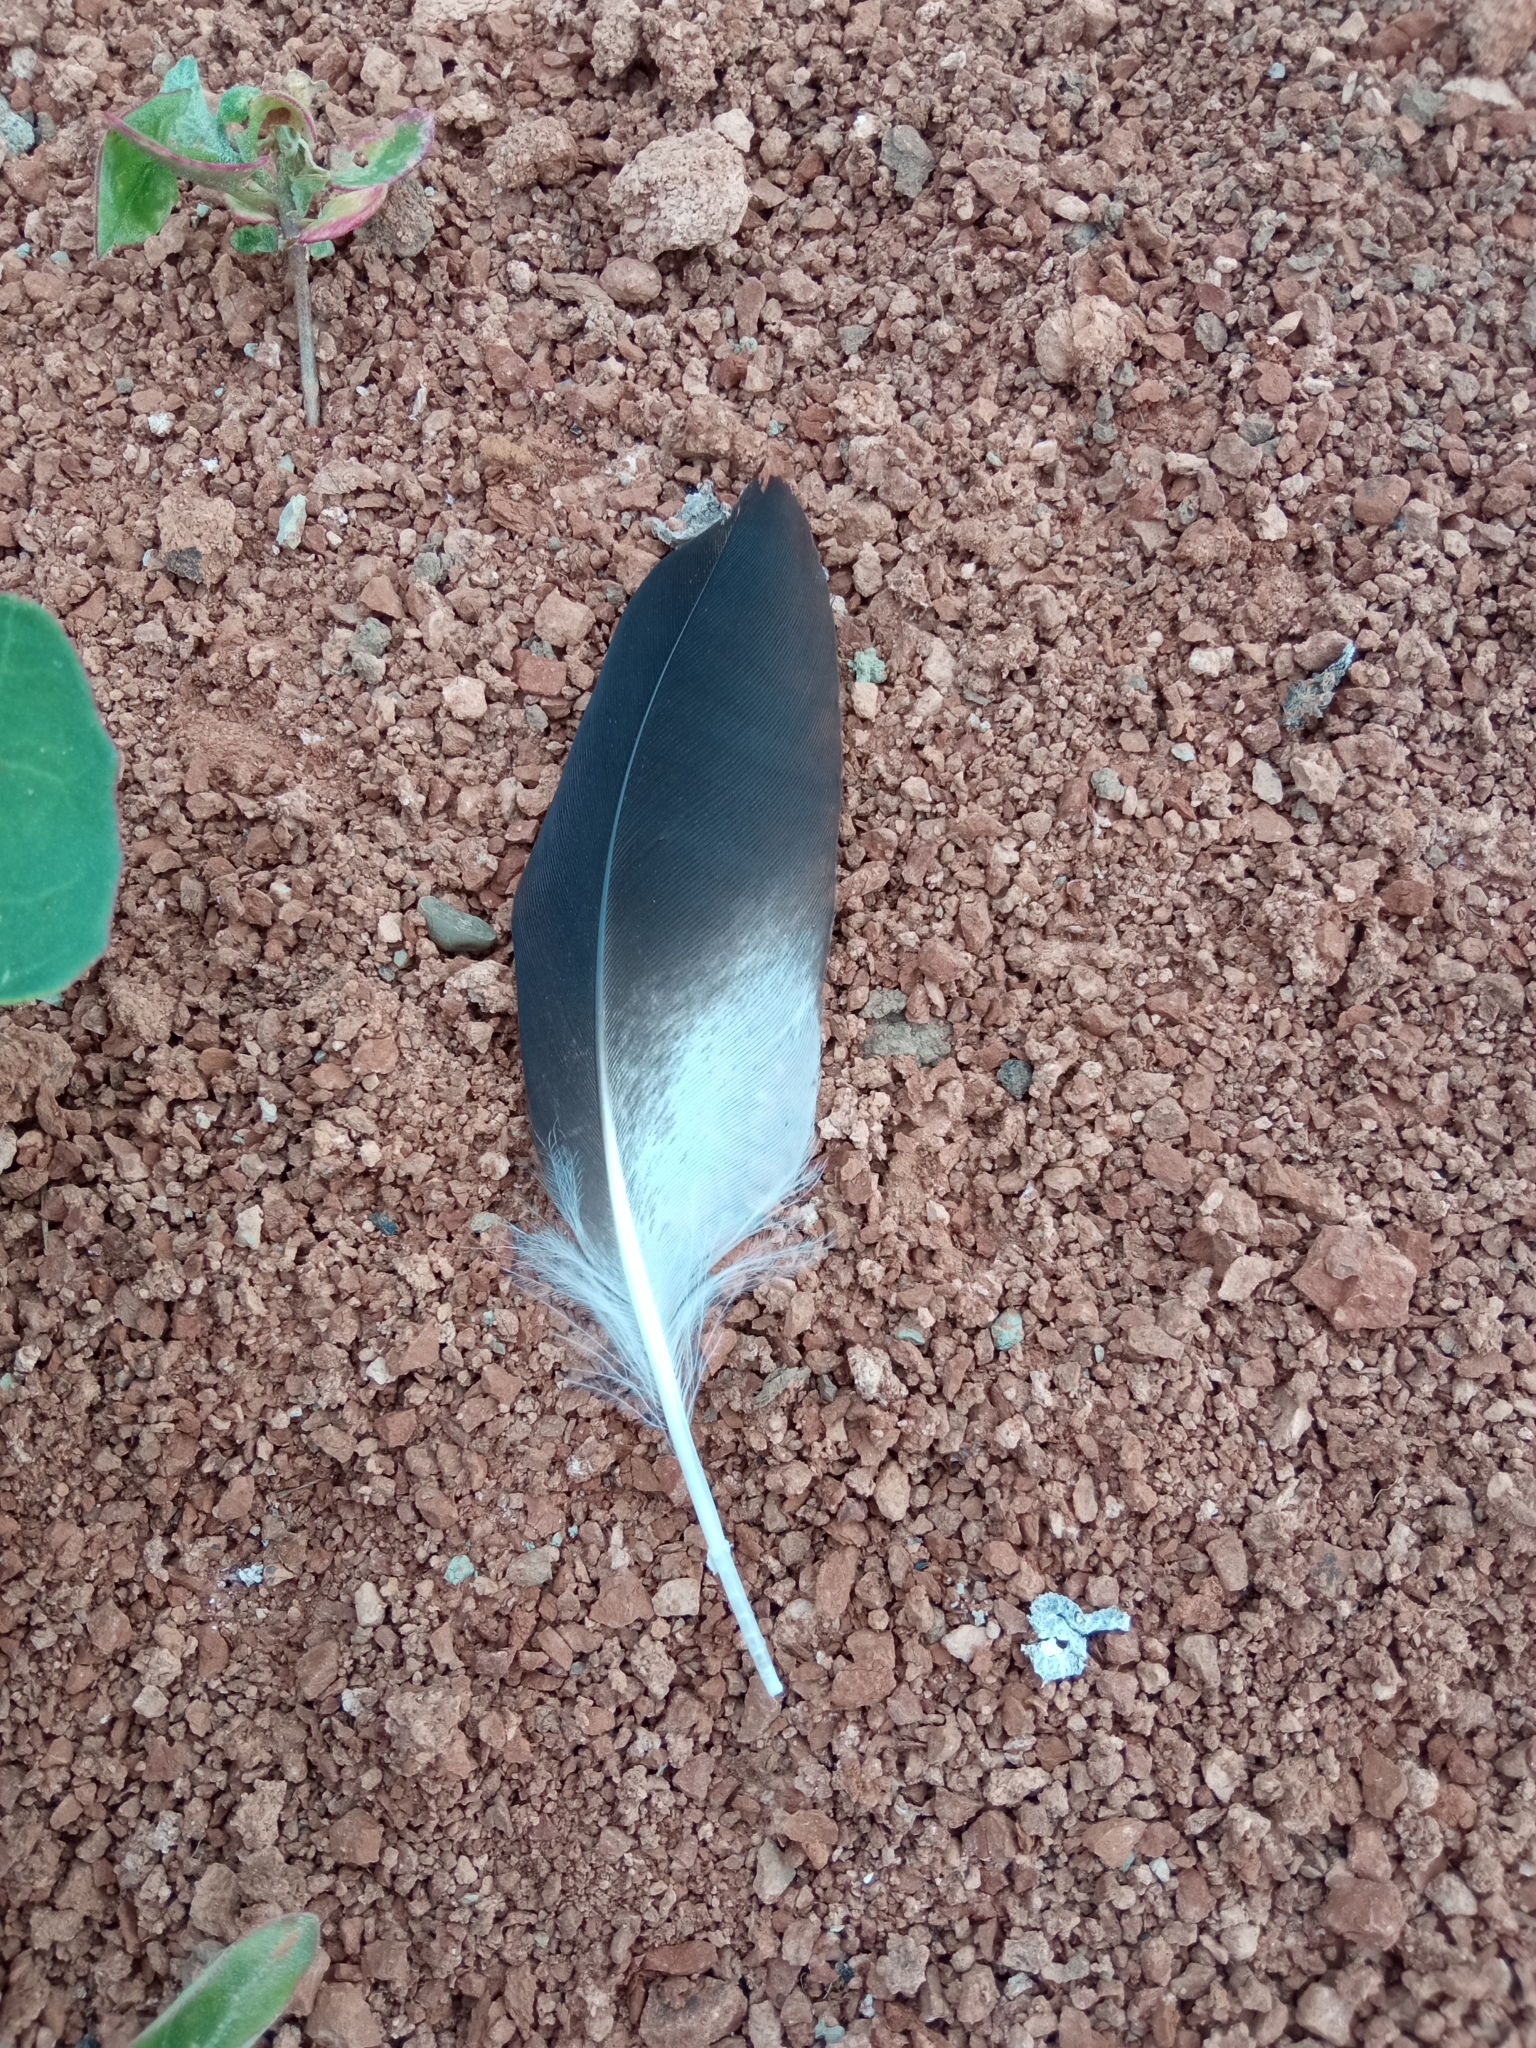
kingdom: Animalia
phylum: Chordata
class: Aves
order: Charadriiformes
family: Charadriidae
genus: Vanellus
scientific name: Vanellus vanellus
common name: Northern lapwing
